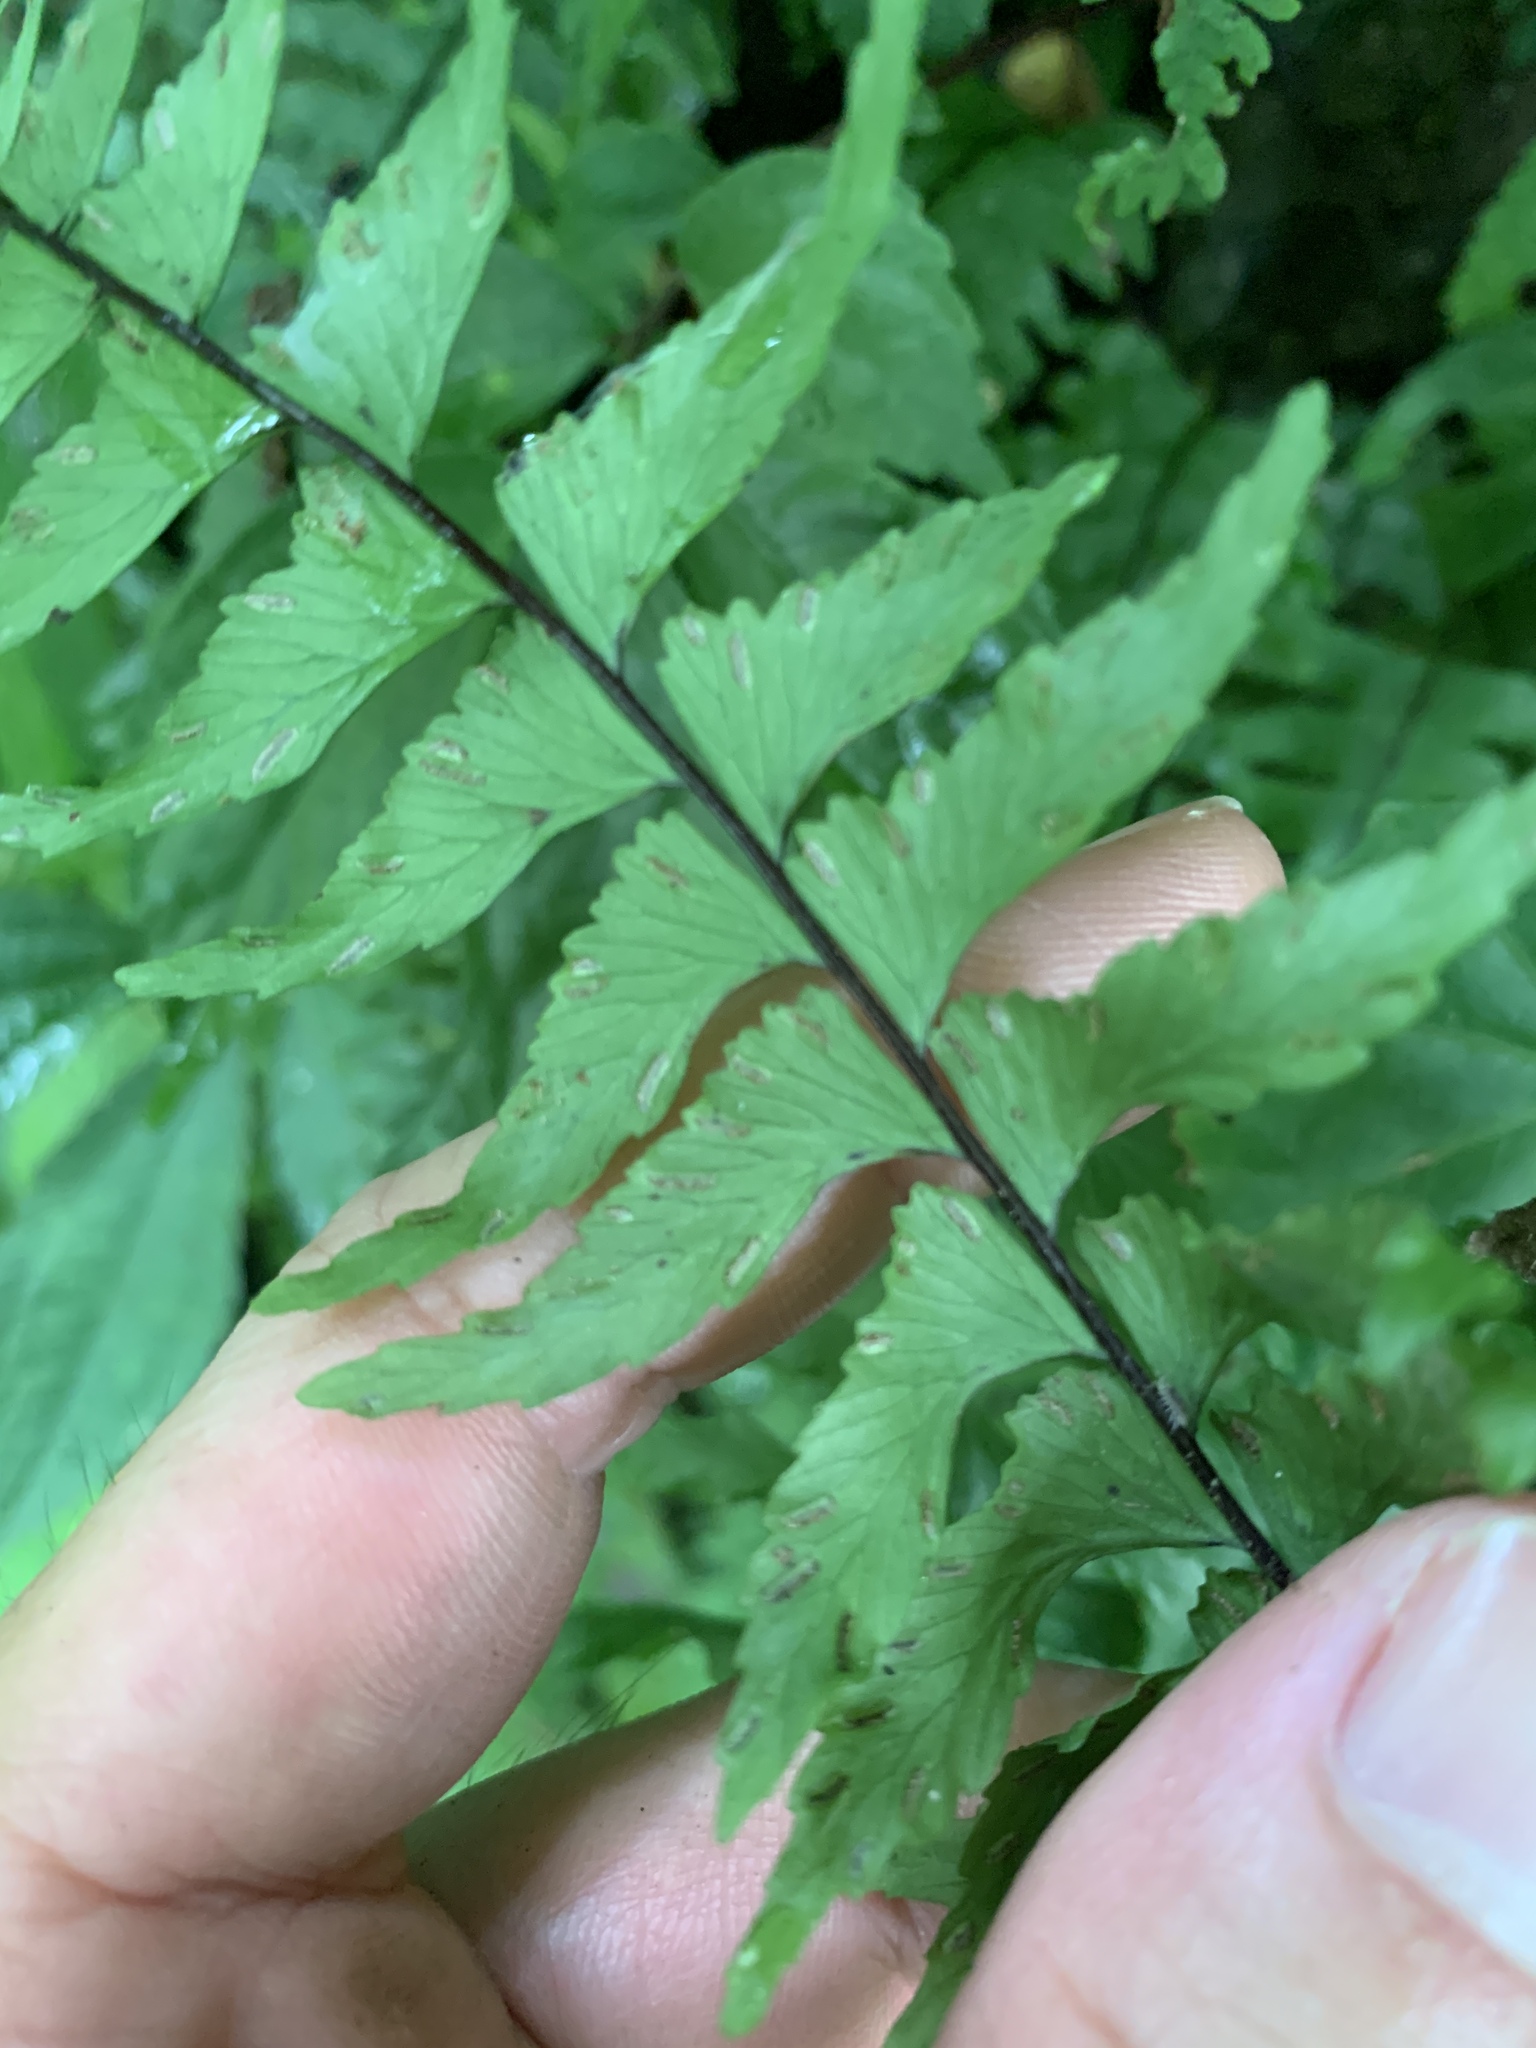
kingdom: Plantae
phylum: Tracheophyta
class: Polypodiopsida
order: Polypodiales
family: Aspleniaceae
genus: Hymenasplenium
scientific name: Hymenasplenium unilaterale
